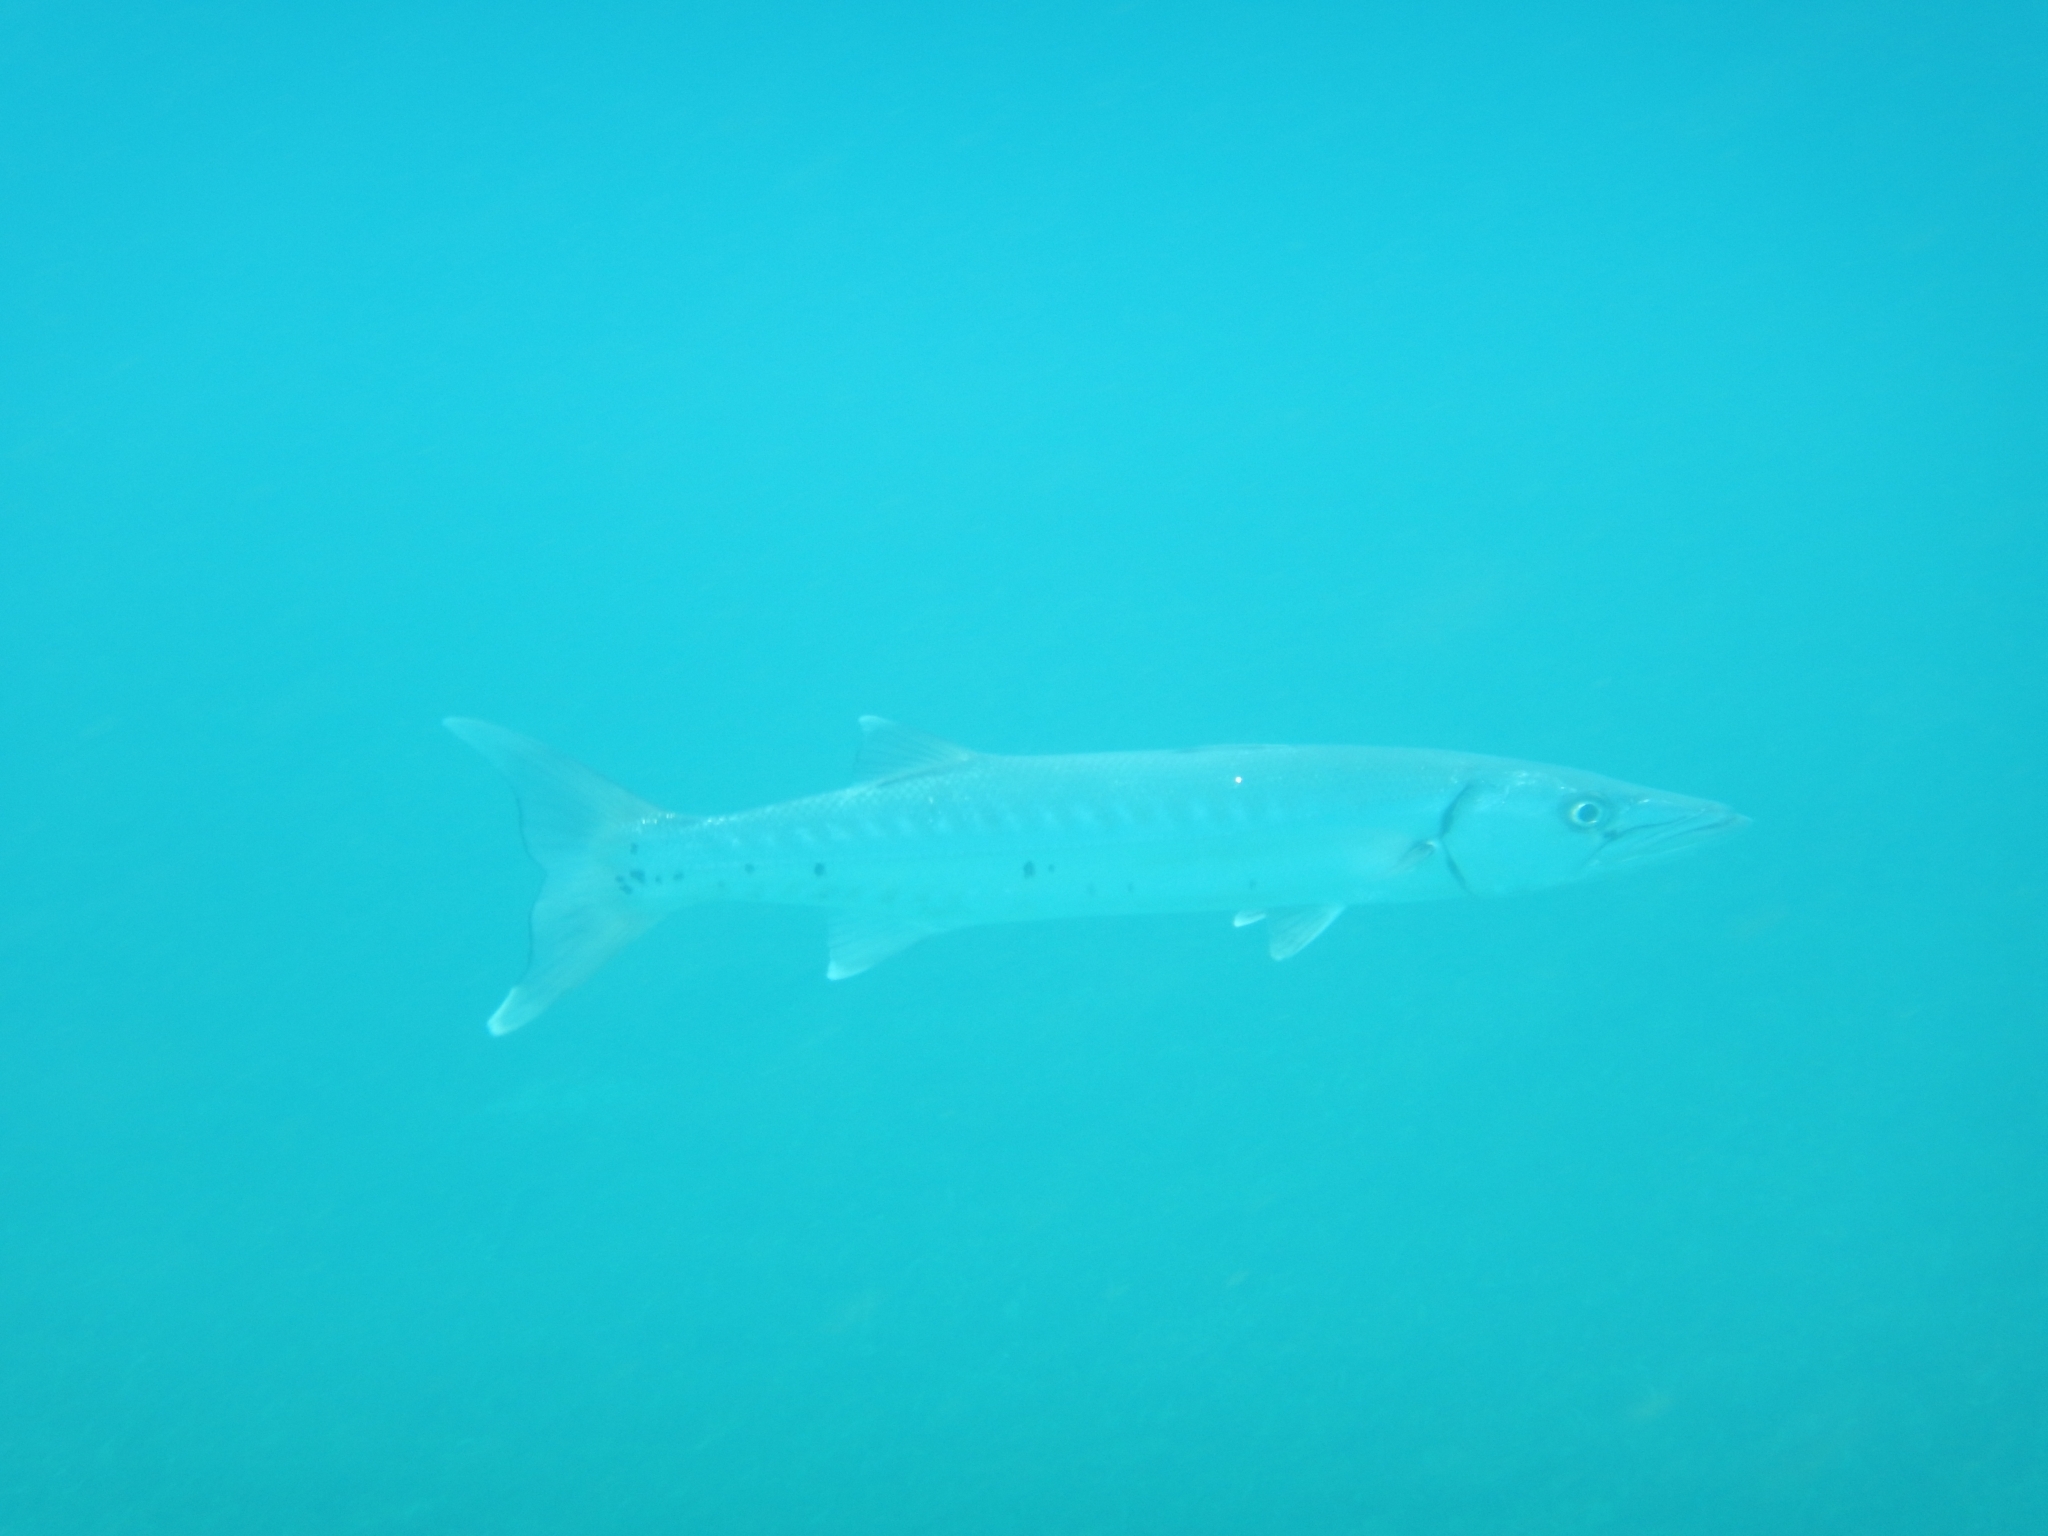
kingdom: Animalia
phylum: Chordata
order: Perciformes
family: Sphyraenidae
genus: Sphyraena
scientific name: Sphyraena barracuda
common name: Great barracuda
